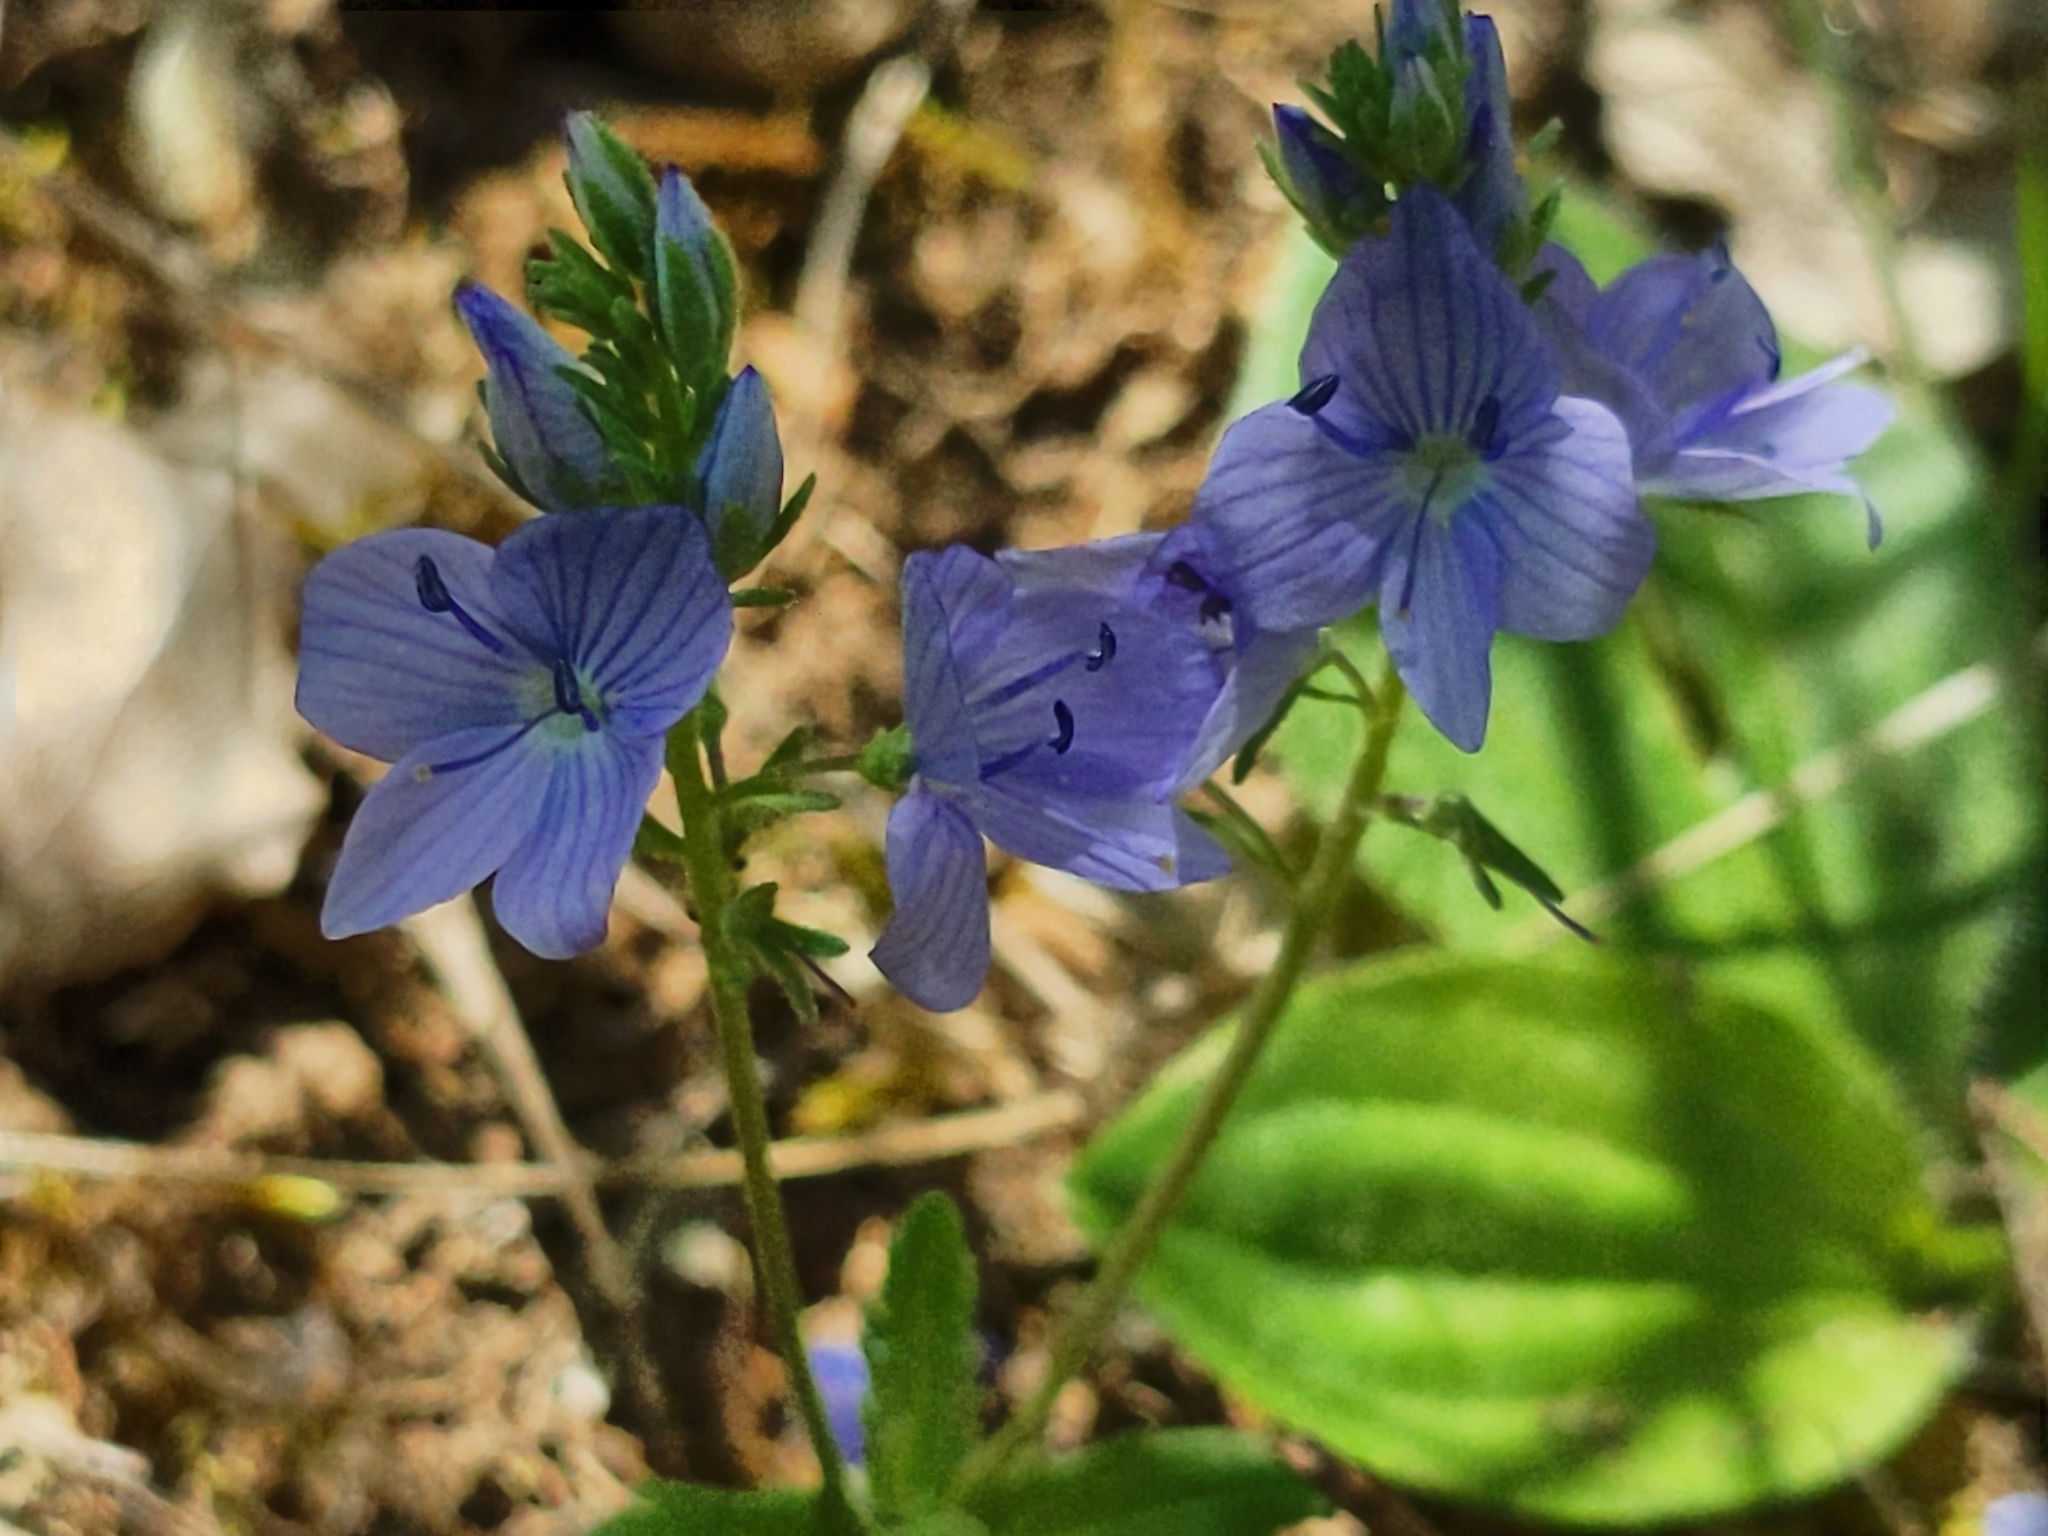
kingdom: Plantae
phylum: Tracheophyta
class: Magnoliopsida
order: Lamiales
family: Plantaginaceae
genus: Veronica
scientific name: Veronica orsiniana
